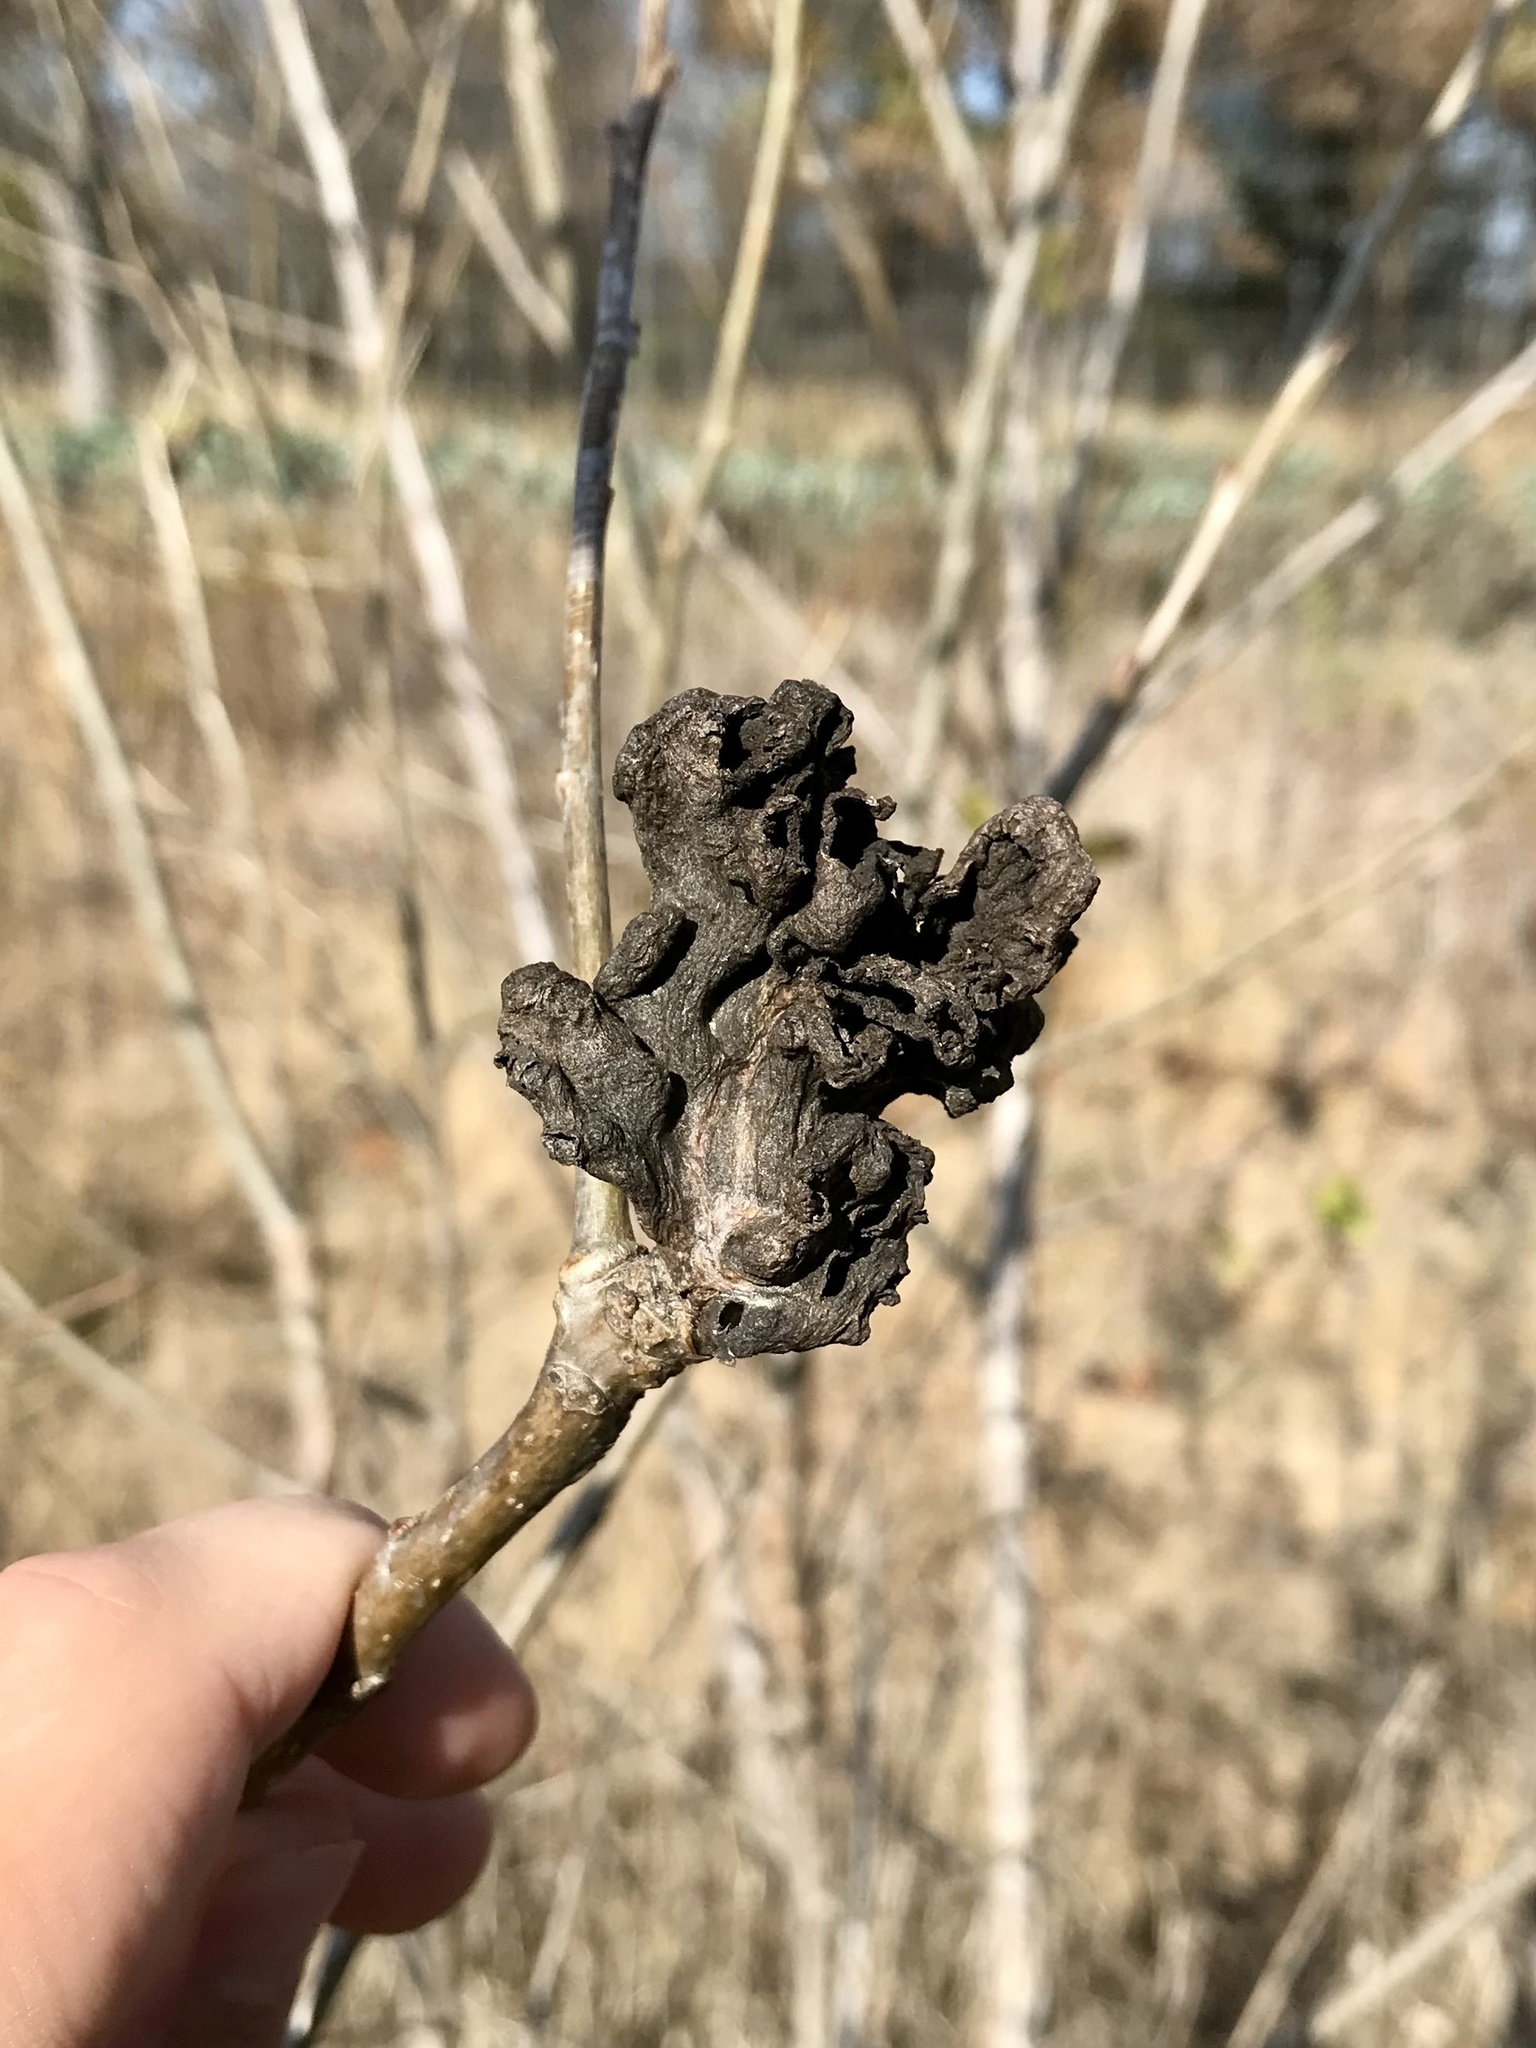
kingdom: Animalia
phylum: Arthropoda
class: Insecta
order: Hemiptera
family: Aphididae
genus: Mordwilkoja
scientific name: Mordwilkoja vagabunda
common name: Poplar vagabond aphid
